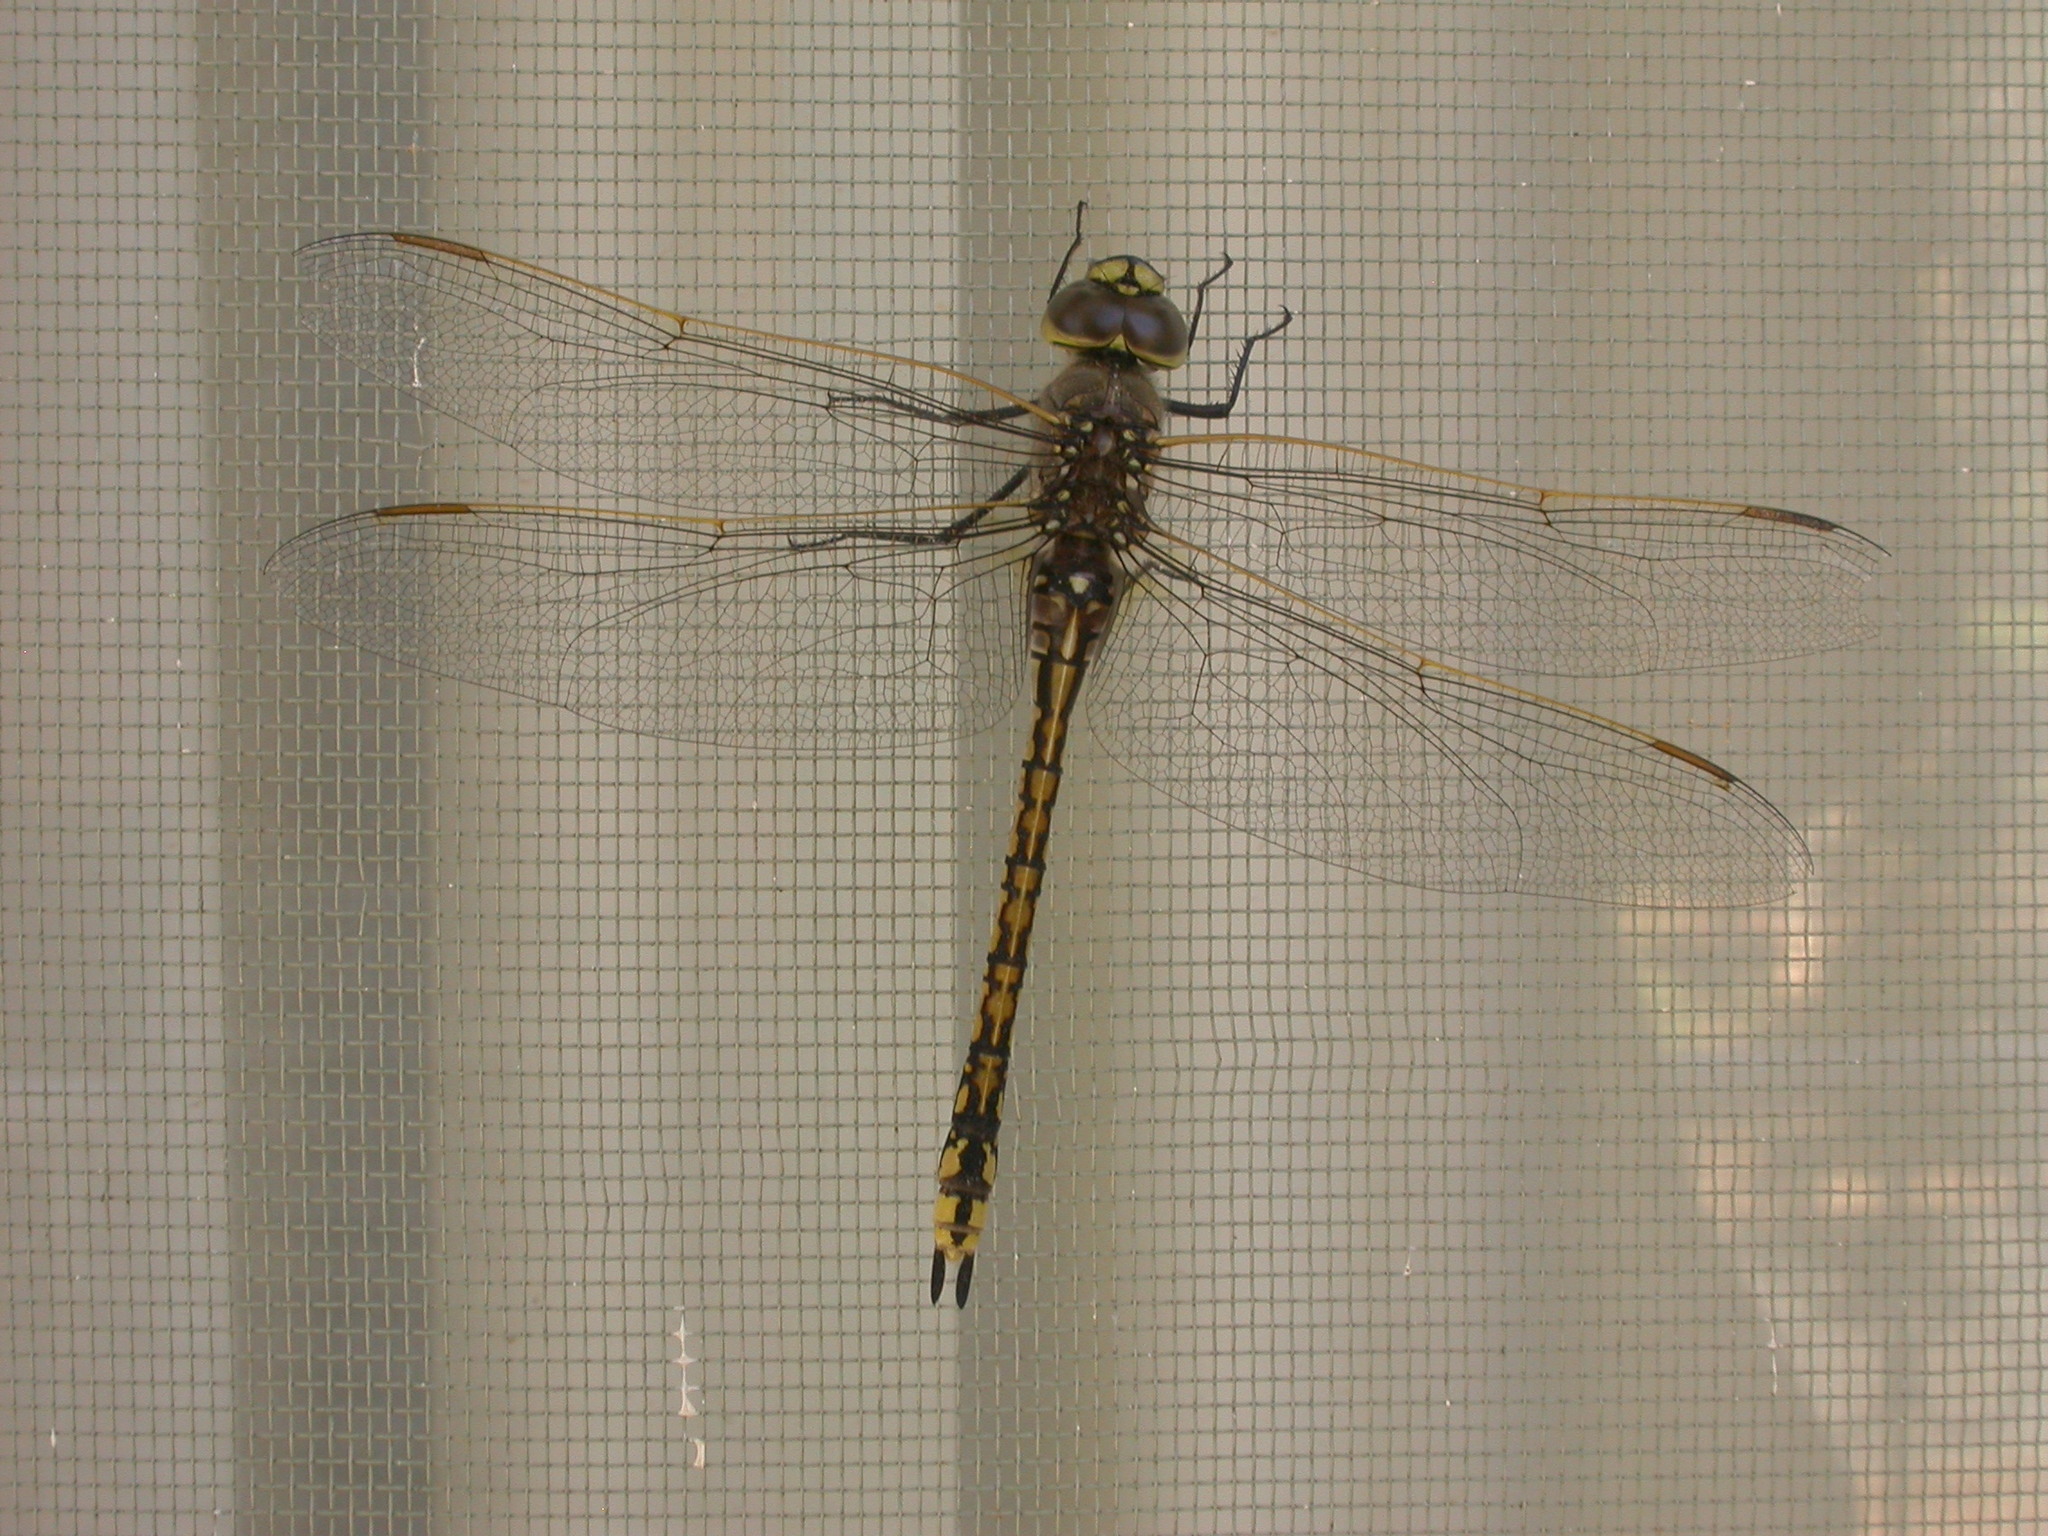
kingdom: Animalia
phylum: Arthropoda
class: Insecta
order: Odonata
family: Aeshnidae
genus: Anax
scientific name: Anax papuensis
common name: Australian emperor
